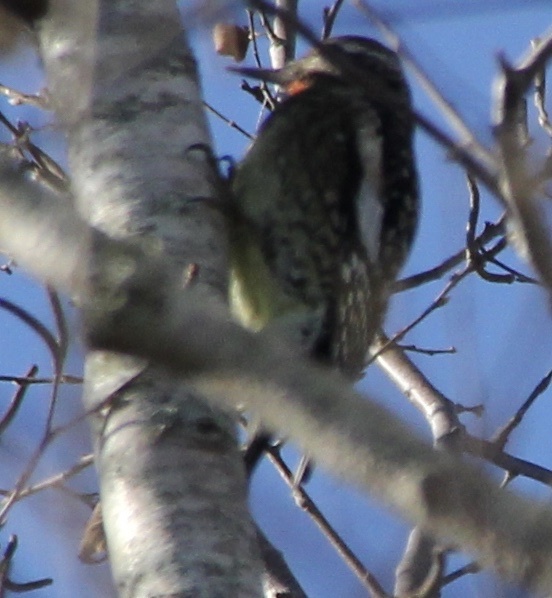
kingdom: Animalia
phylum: Chordata
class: Aves
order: Piciformes
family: Picidae
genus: Sphyrapicus
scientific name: Sphyrapicus varius
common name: Yellow-bellied sapsucker
